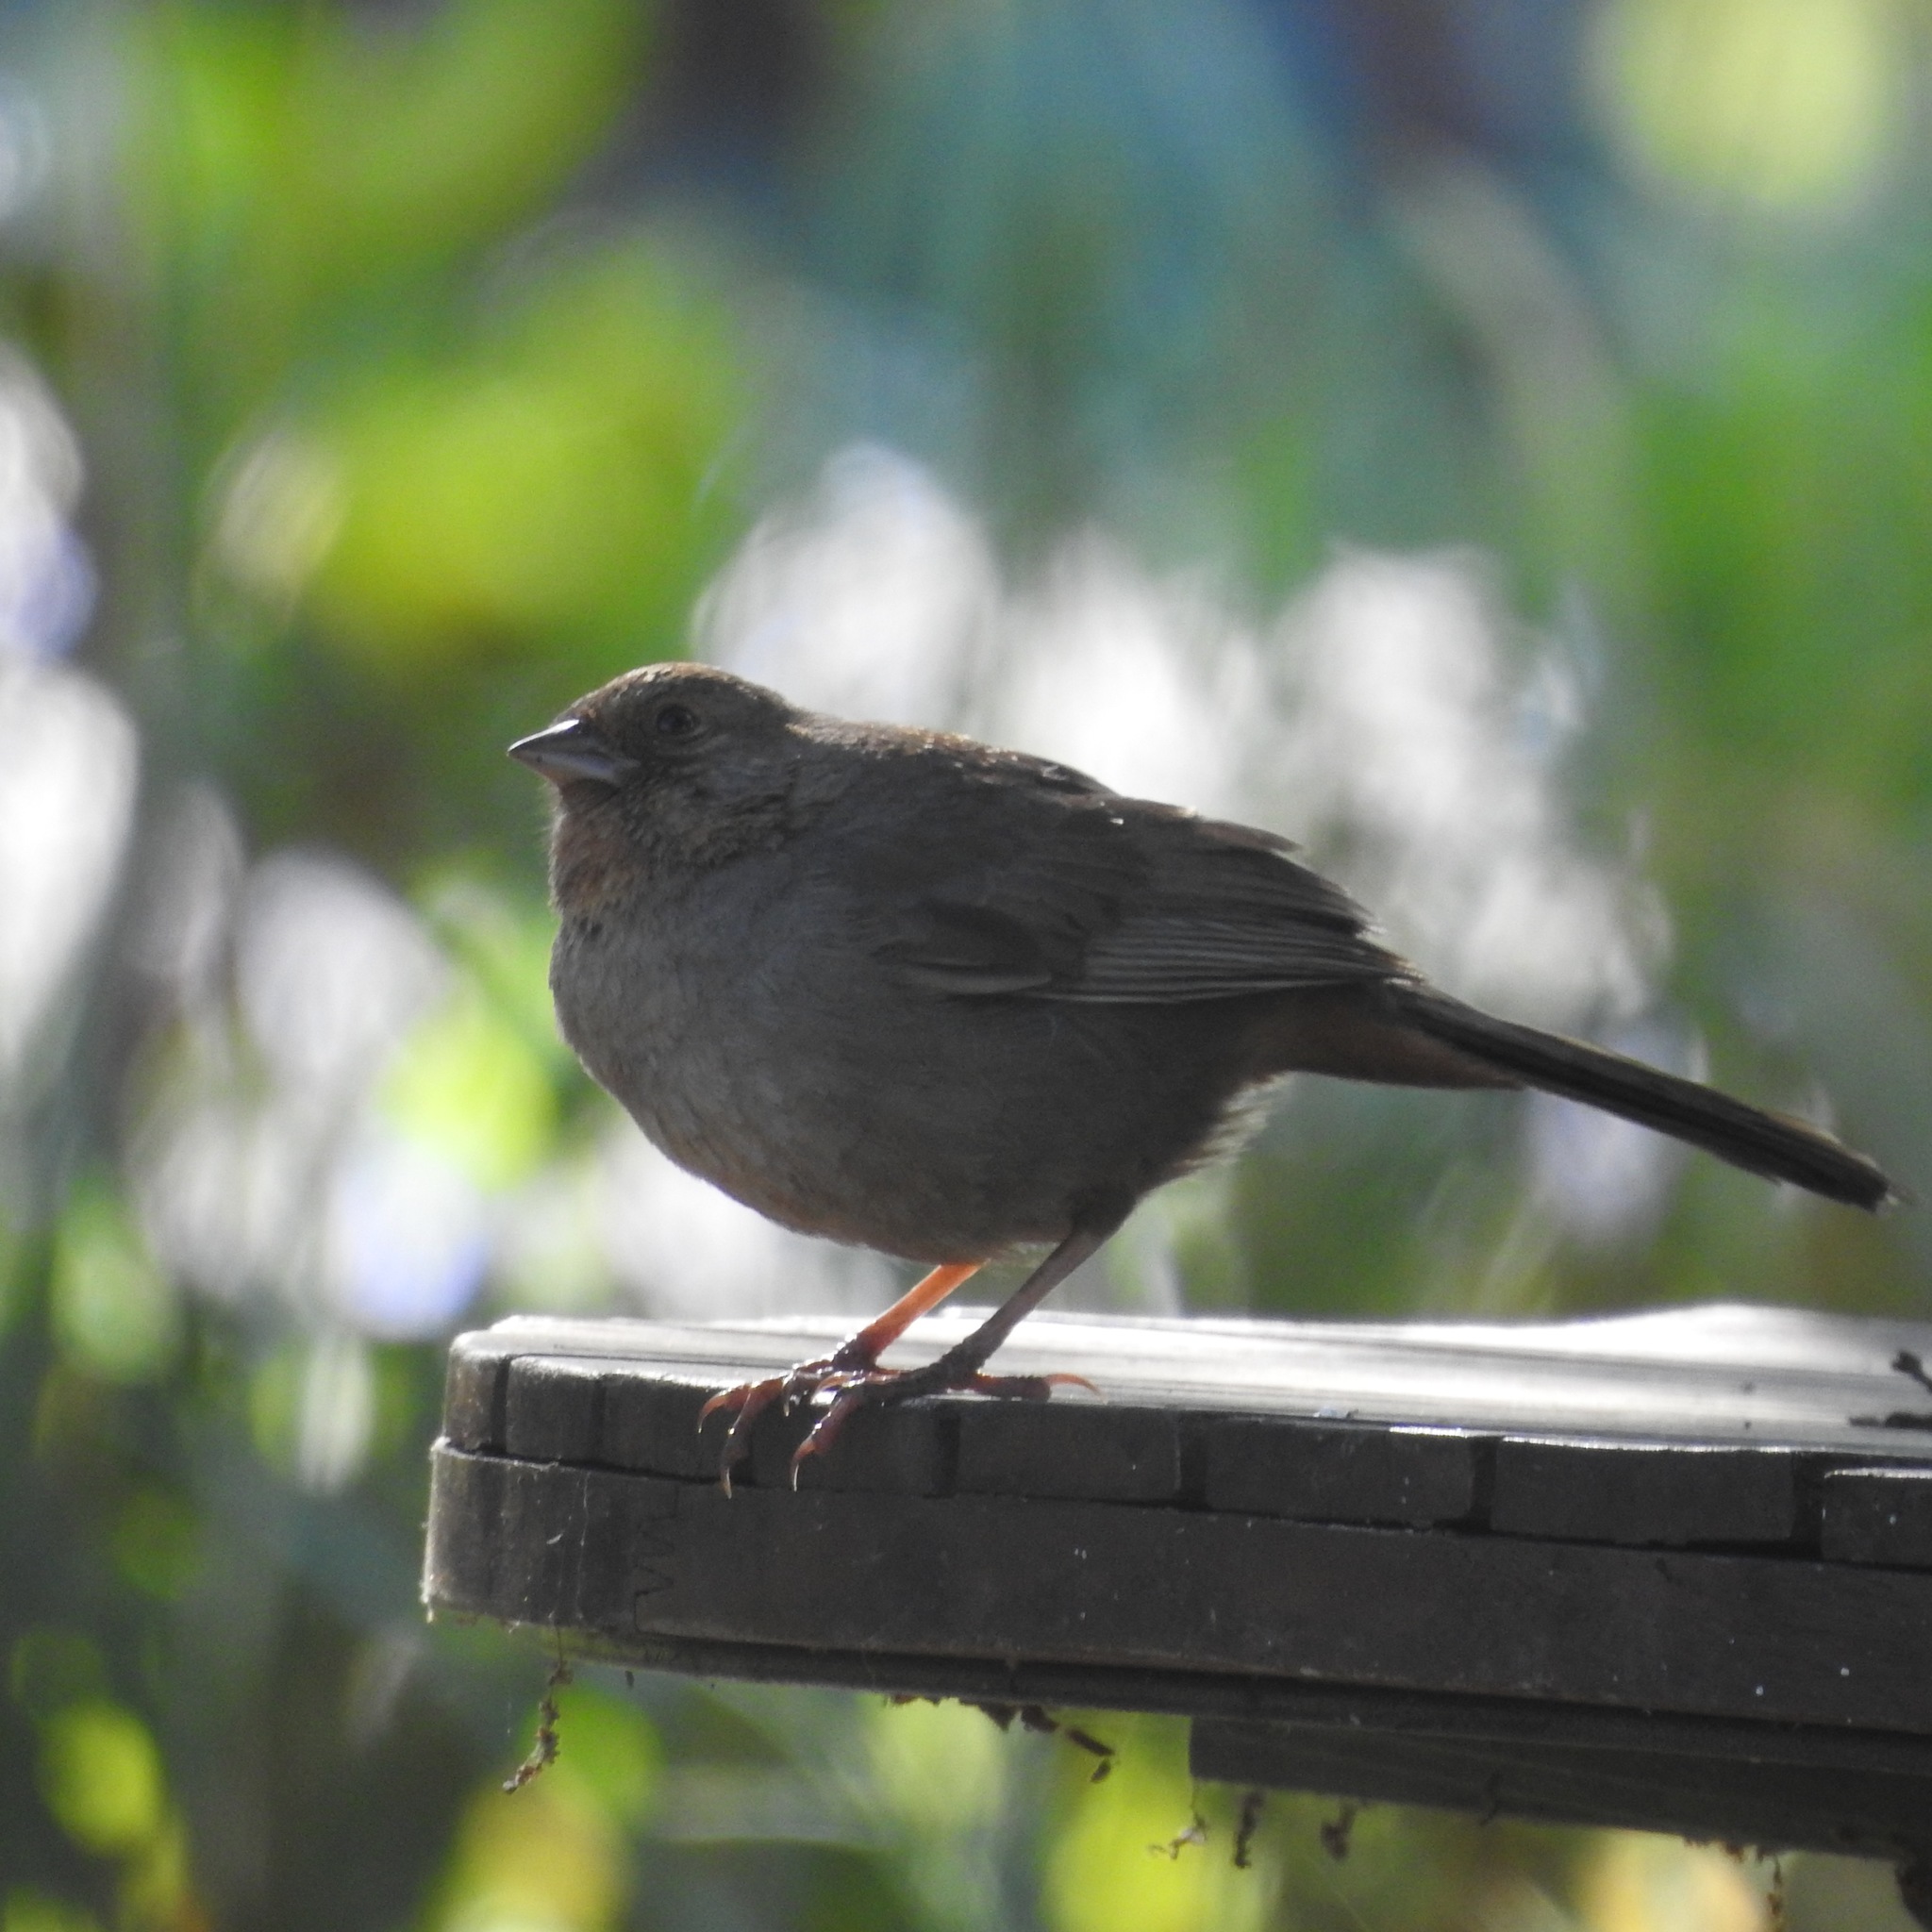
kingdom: Animalia
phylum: Chordata
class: Aves
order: Passeriformes
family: Passerellidae
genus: Melozone
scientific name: Melozone crissalis
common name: California towhee
